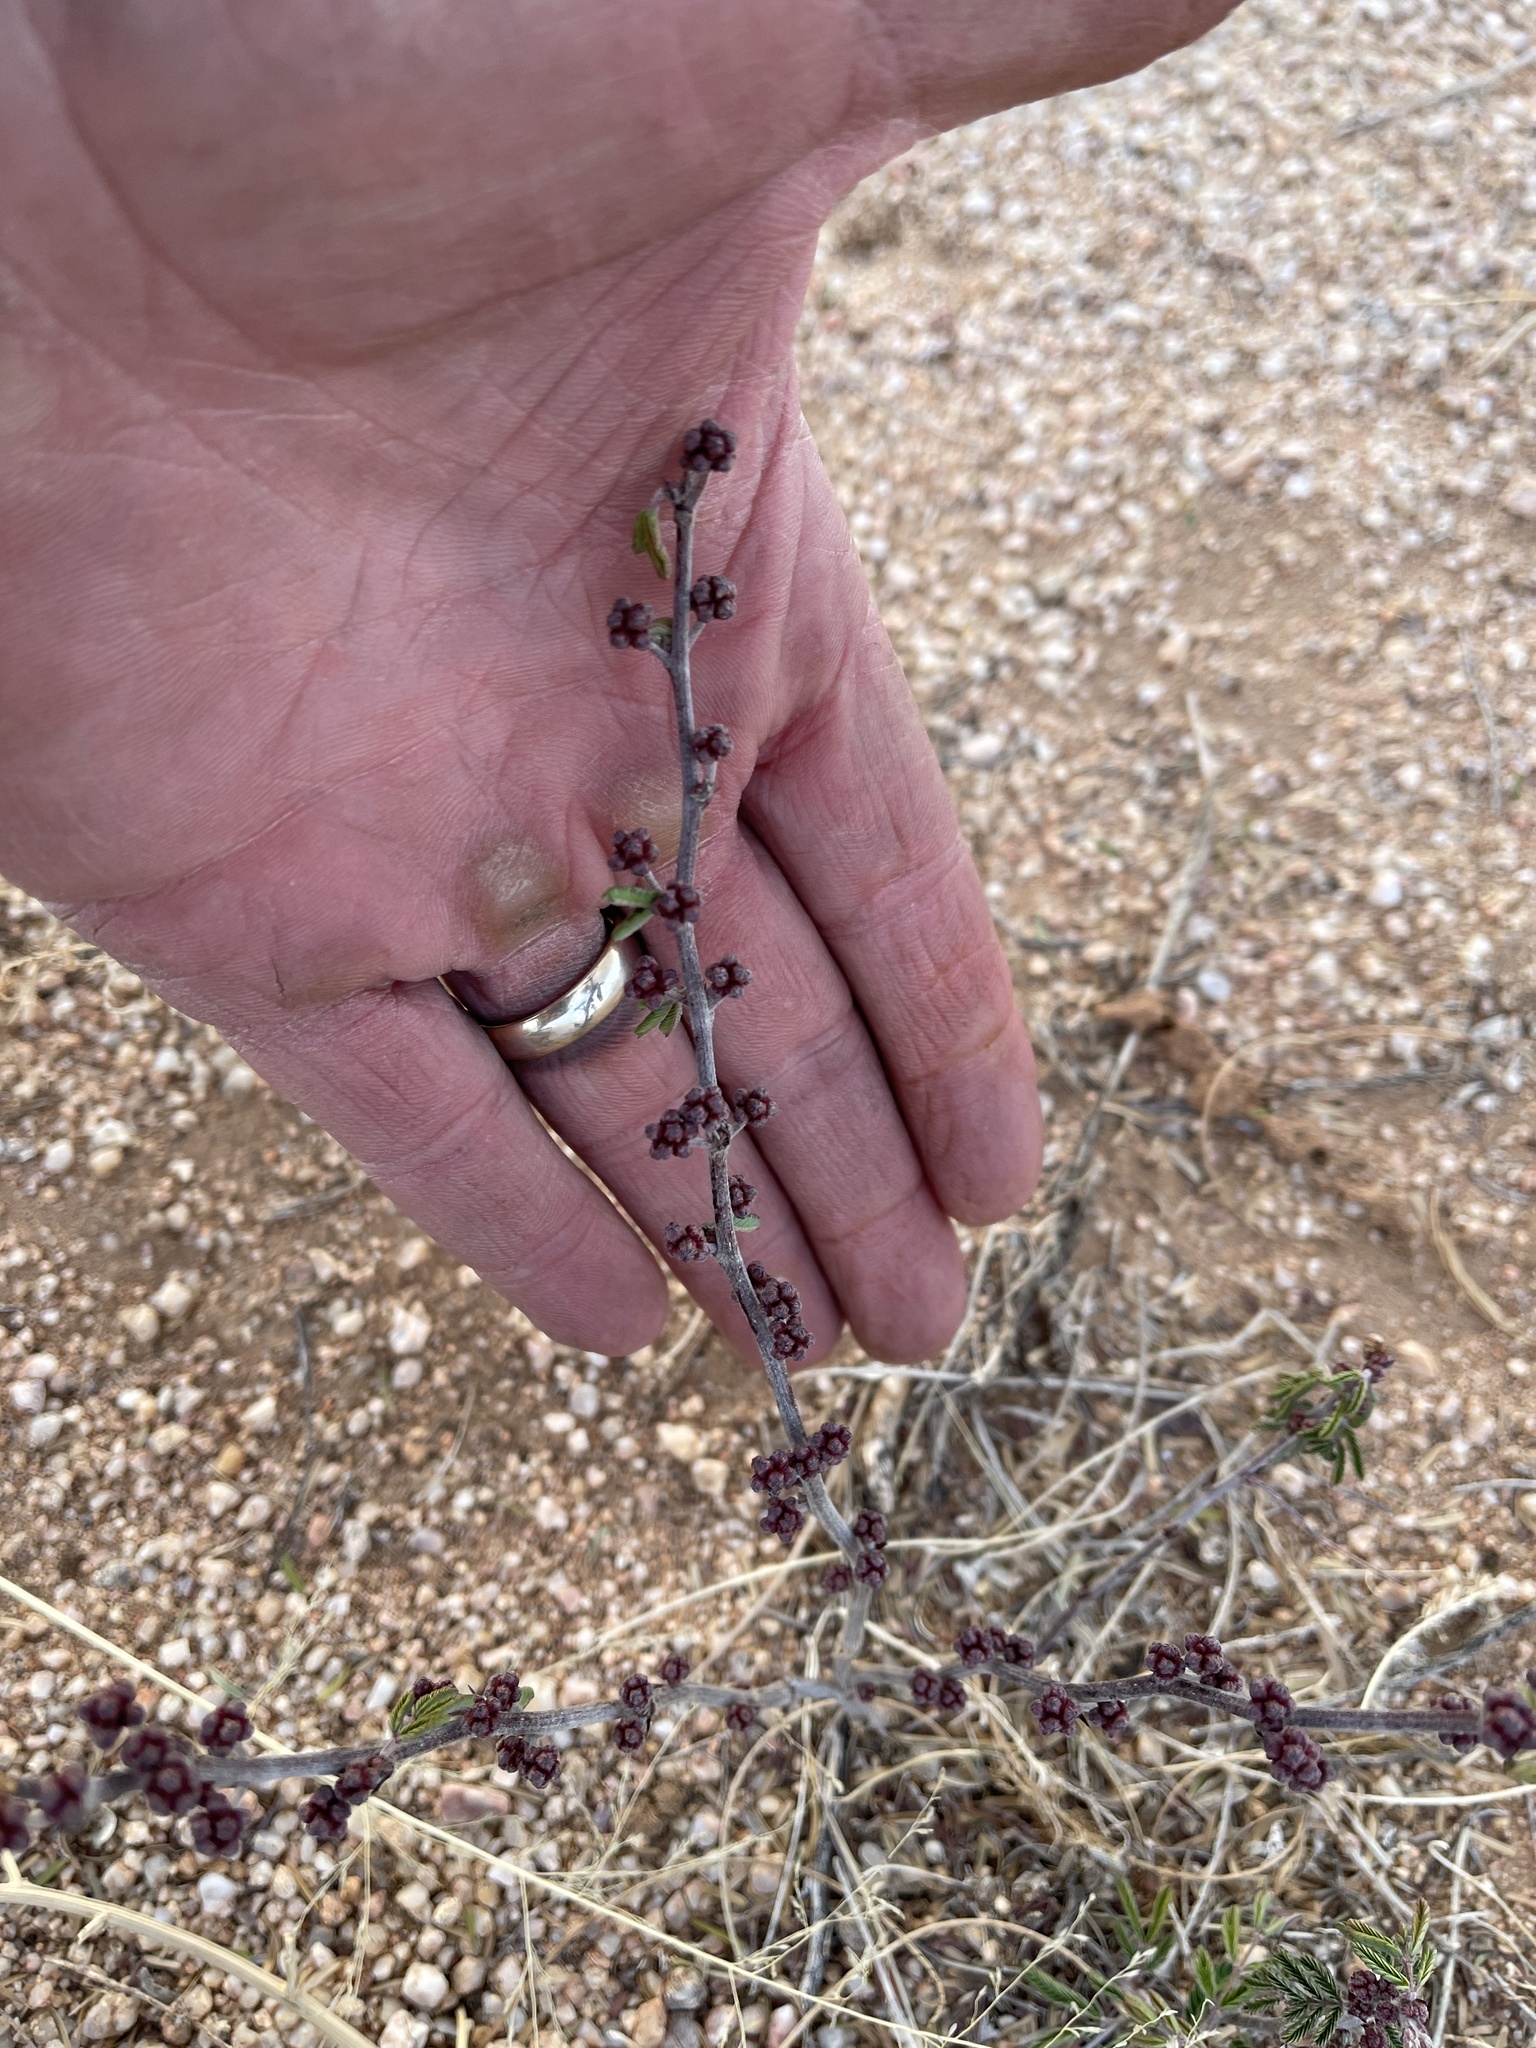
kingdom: Plantae
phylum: Tracheophyta
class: Magnoliopsida
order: Fabales
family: Fabaceae
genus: Calliandra
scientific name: Calliandra eriophylla
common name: Fairy-duster
